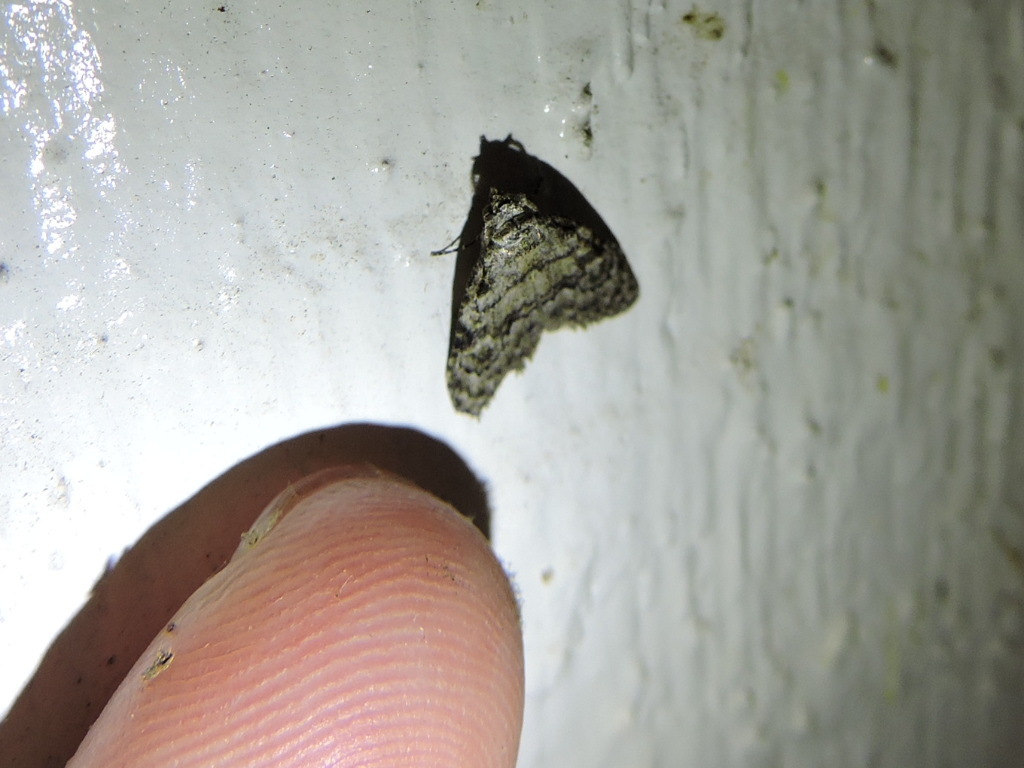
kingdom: Animalia
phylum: Arthropoda
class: Insecta
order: Lepidoptera
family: Nolidae
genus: Meganola
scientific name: Meganola minuscula
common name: Confused meganola moth
